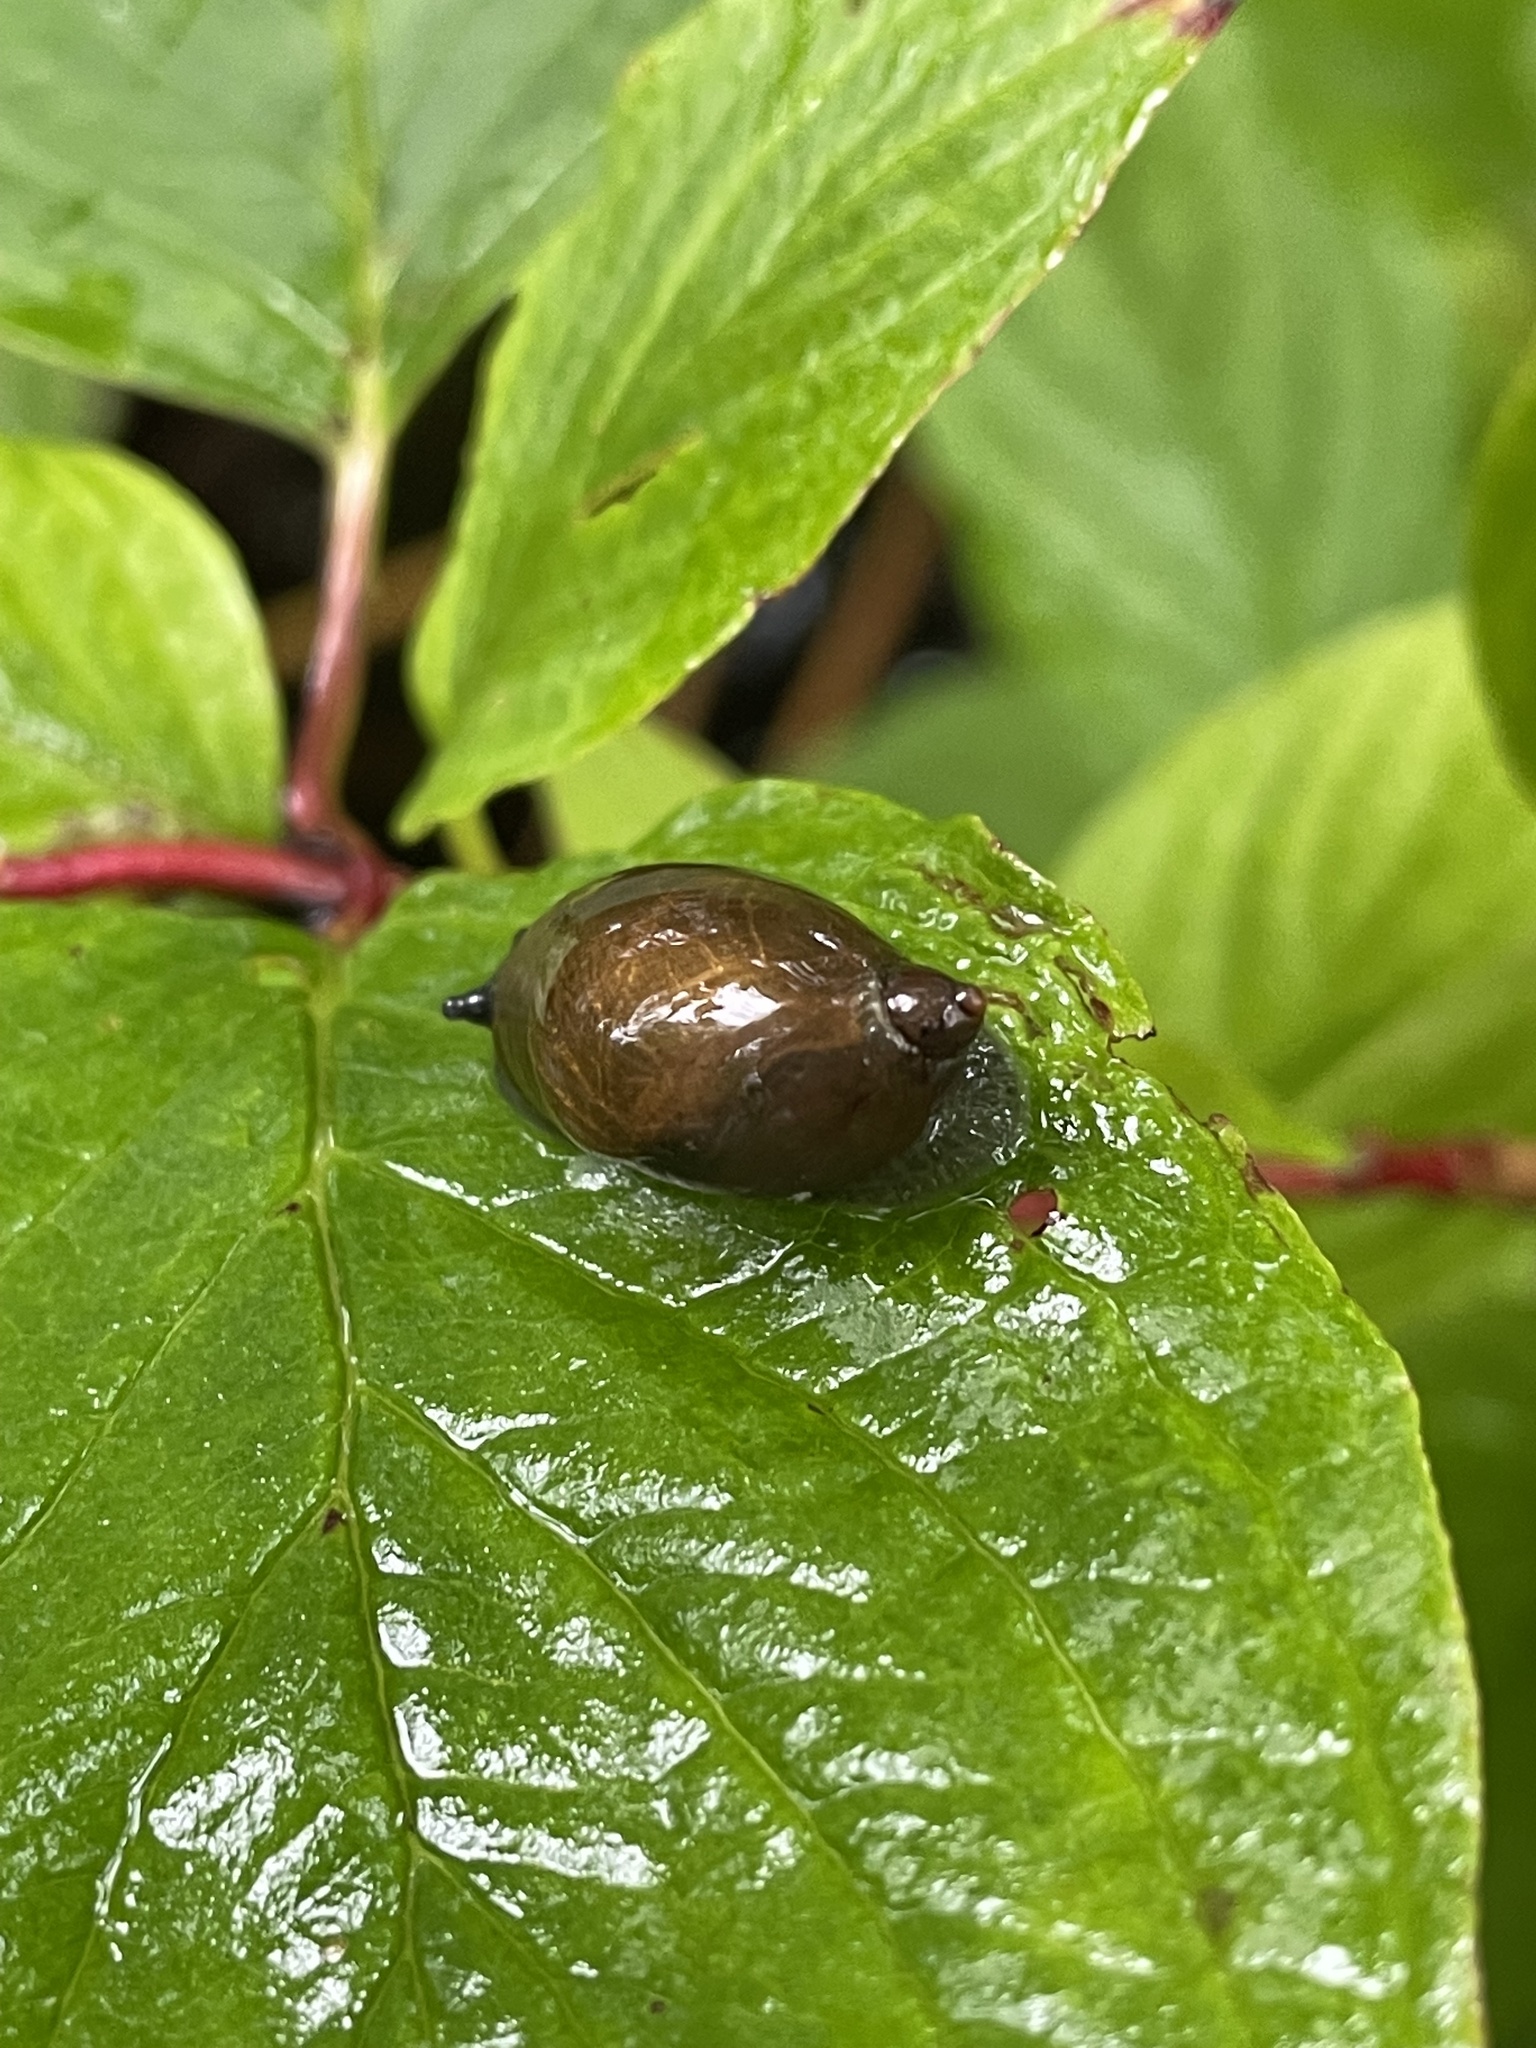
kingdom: Animalia
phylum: Mollusca
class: Gastropoda
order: Stylommatophora
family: Succineidae
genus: Succinea
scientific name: Succinea putris
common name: European ambersnail
